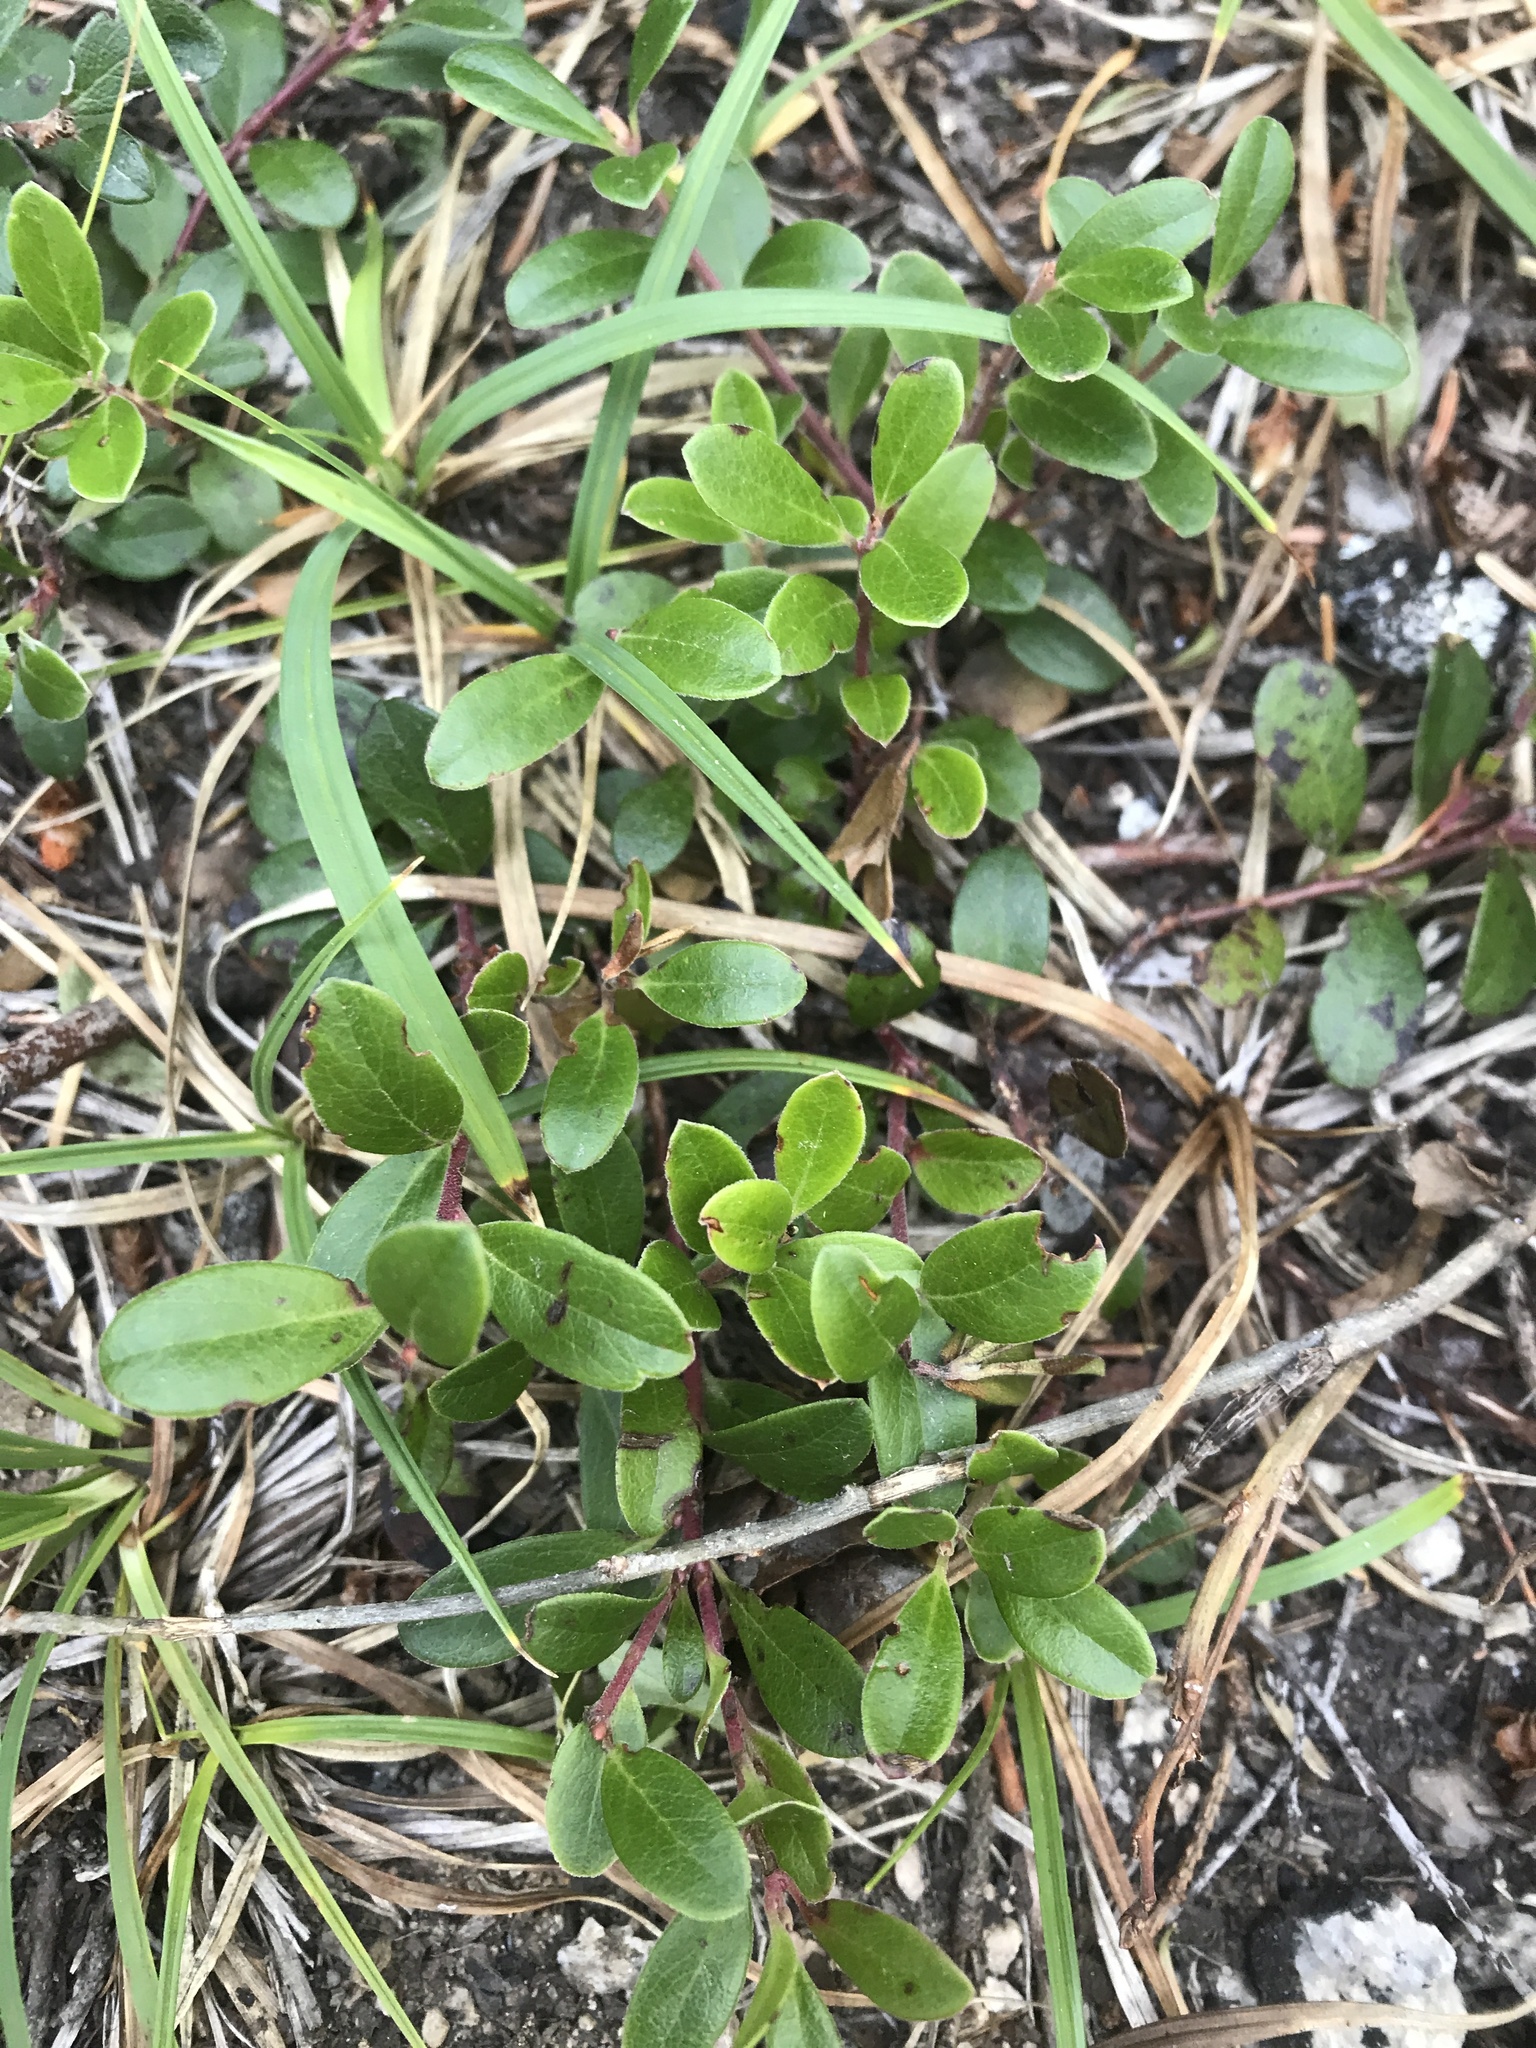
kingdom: Plantae
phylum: Tracheophyta
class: Magnoliopsida
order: Ericales
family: Ericaceae
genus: Arctostaphylos
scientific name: Arctostaphylos uva-ursi
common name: Bearberry
